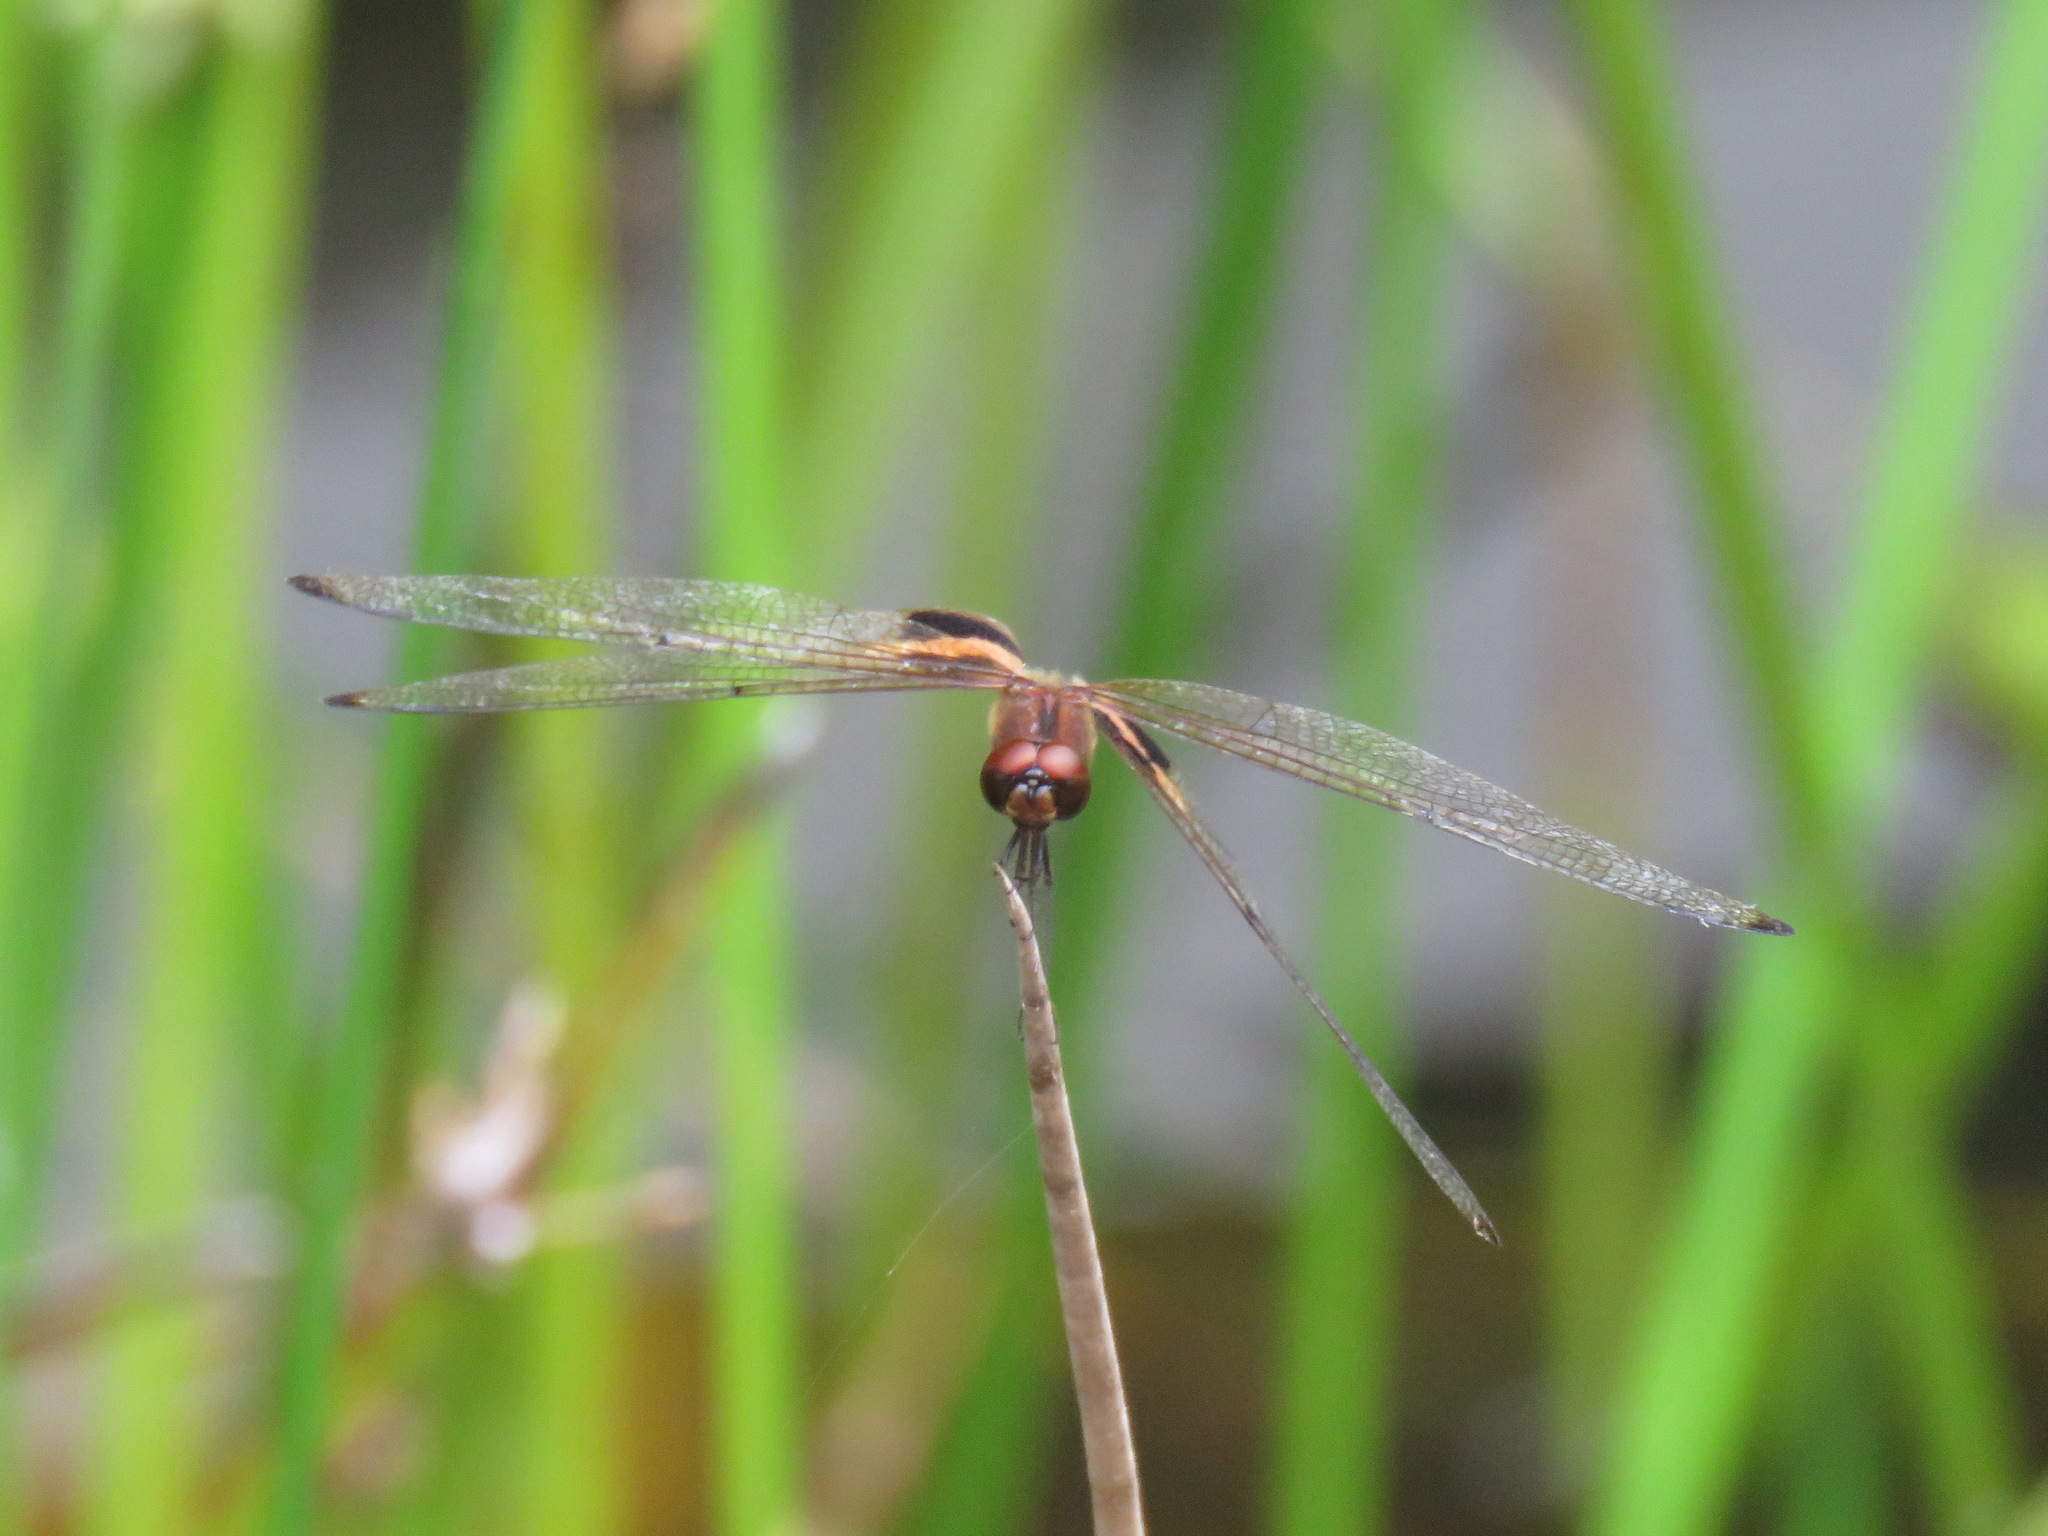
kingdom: Animalia
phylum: Arthropoda
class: Insecta
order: Odonata
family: Libellulidae
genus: Rhyothemis
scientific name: Rhyothemis phyllis
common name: Yellow-barred flutterer
